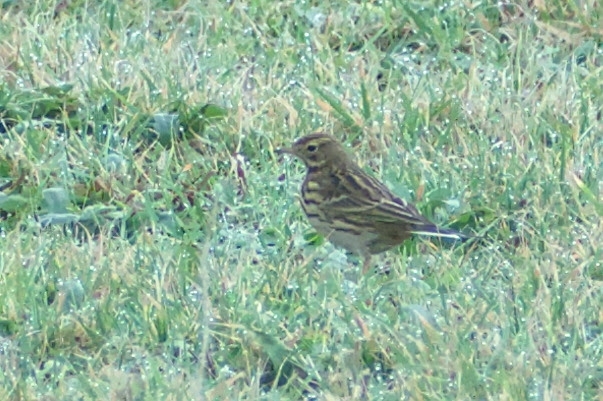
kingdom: Animalia
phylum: Chordata
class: Aves
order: Passeriformes
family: Motacillidae
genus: Anthus
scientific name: Anthus pratensis
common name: Meadow pipit
